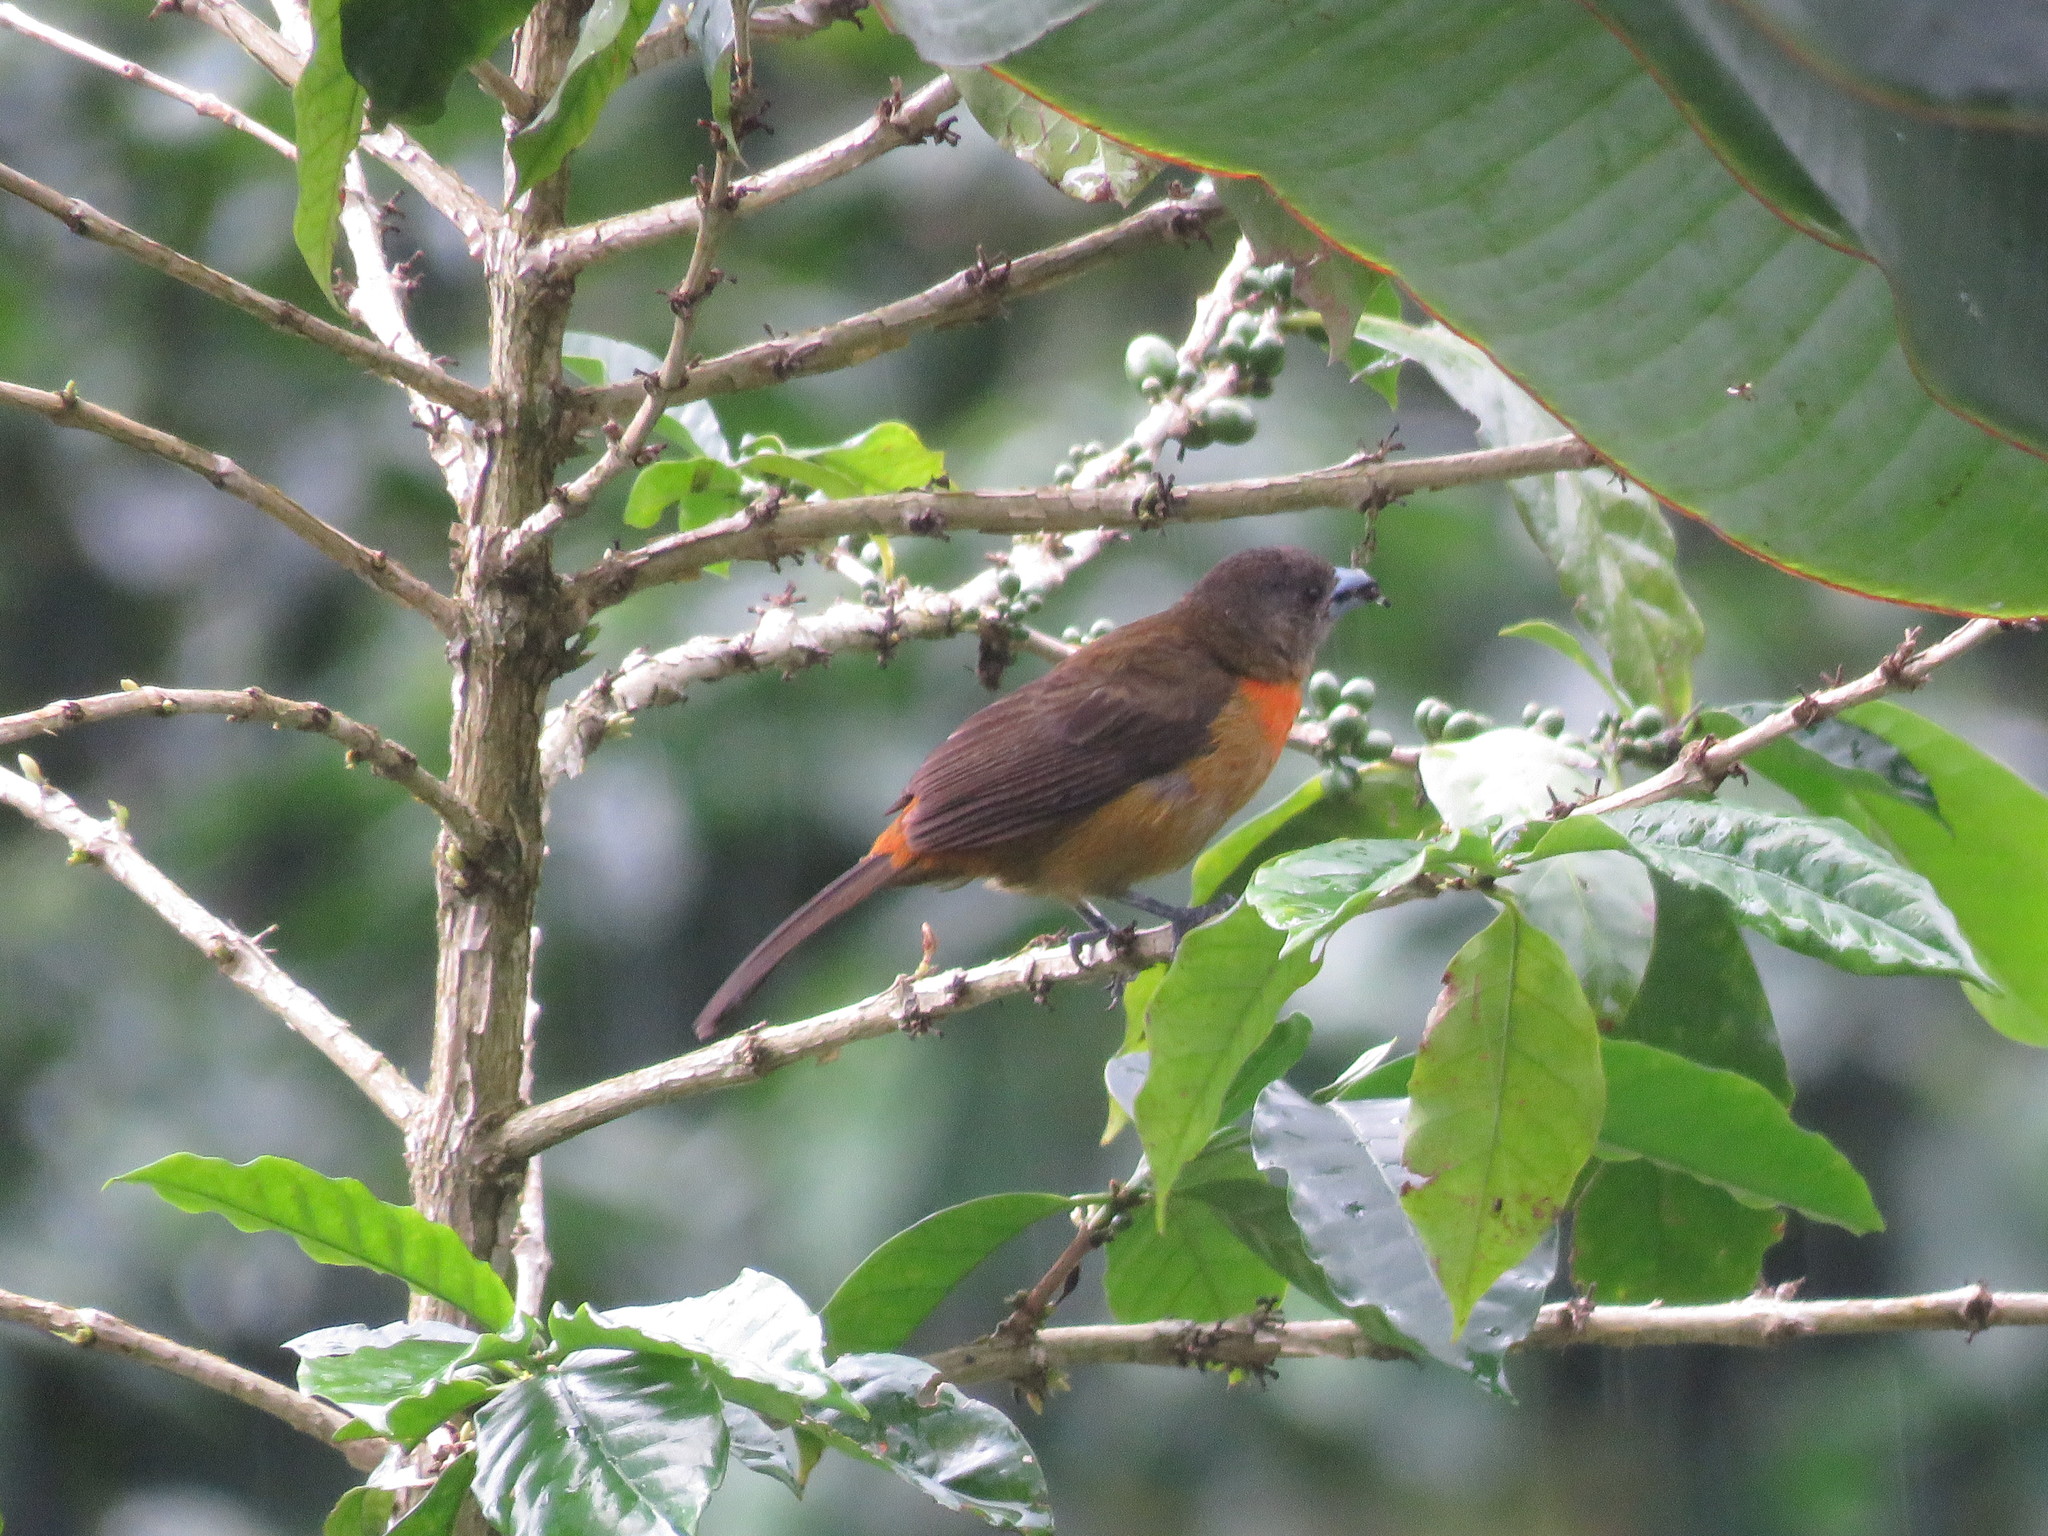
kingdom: Animalia
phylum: Chordata
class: Aves
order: Passeriformes
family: Thraupidae
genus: Ramphocelus
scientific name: Ramphocelus passerinii
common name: Passerini's tanager
